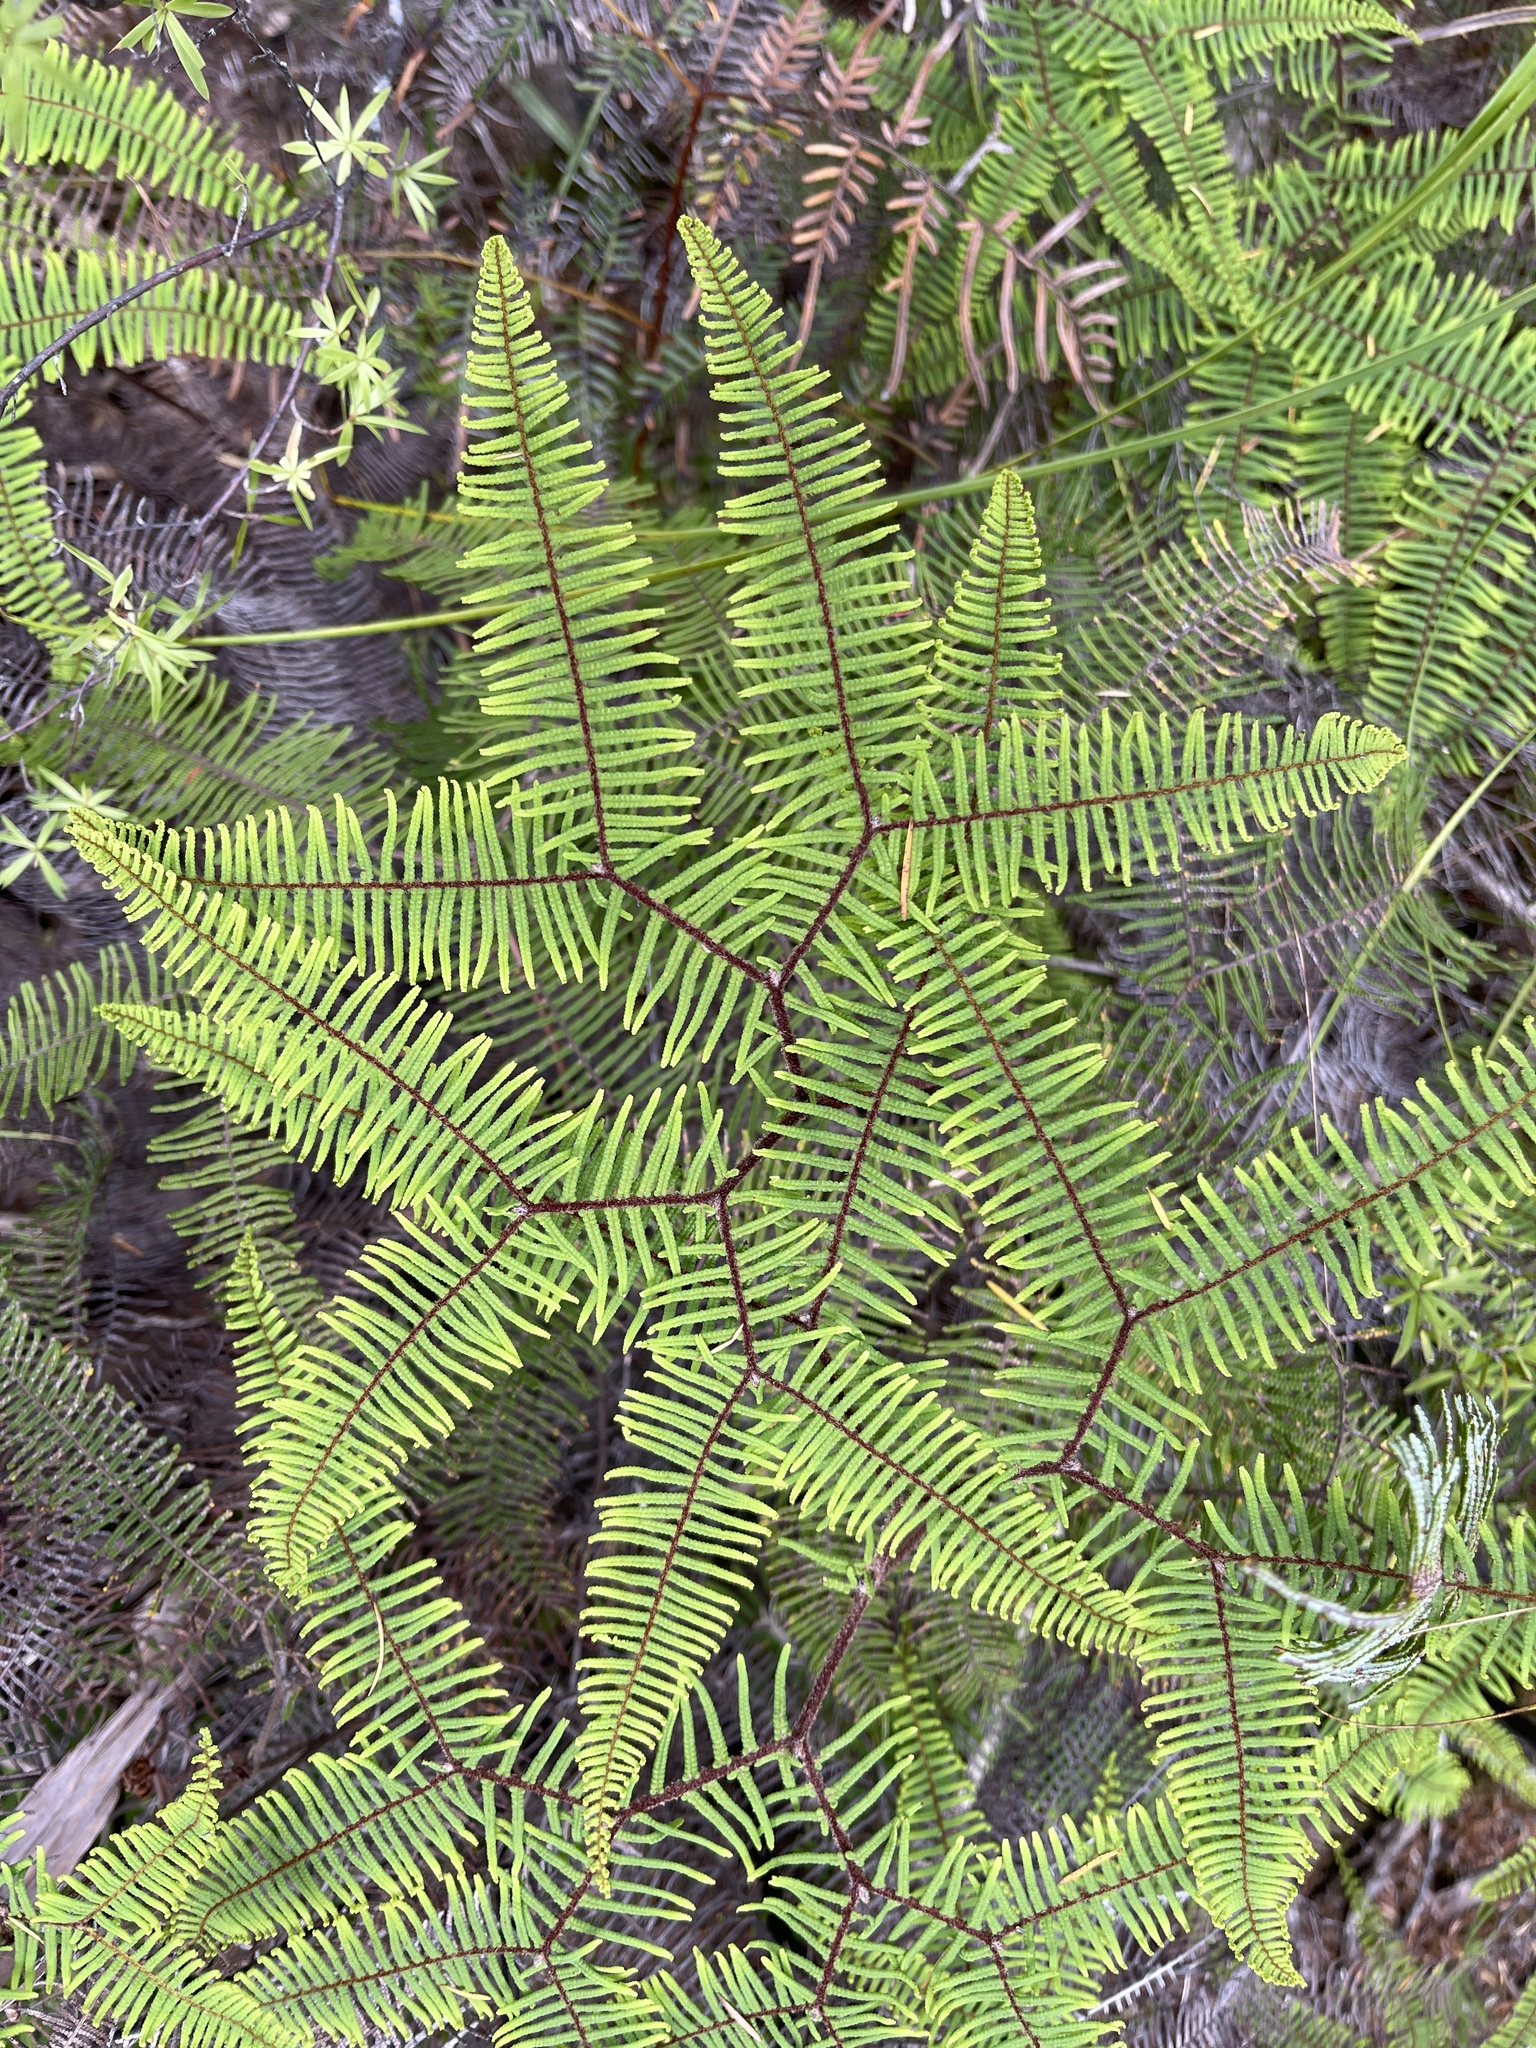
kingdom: Plantae
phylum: Tracheophyta
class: Polypodiopsida
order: Gleicheniales
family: Gleicheniaceae
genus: Gleichenia
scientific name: Gleichenia dicarpa
